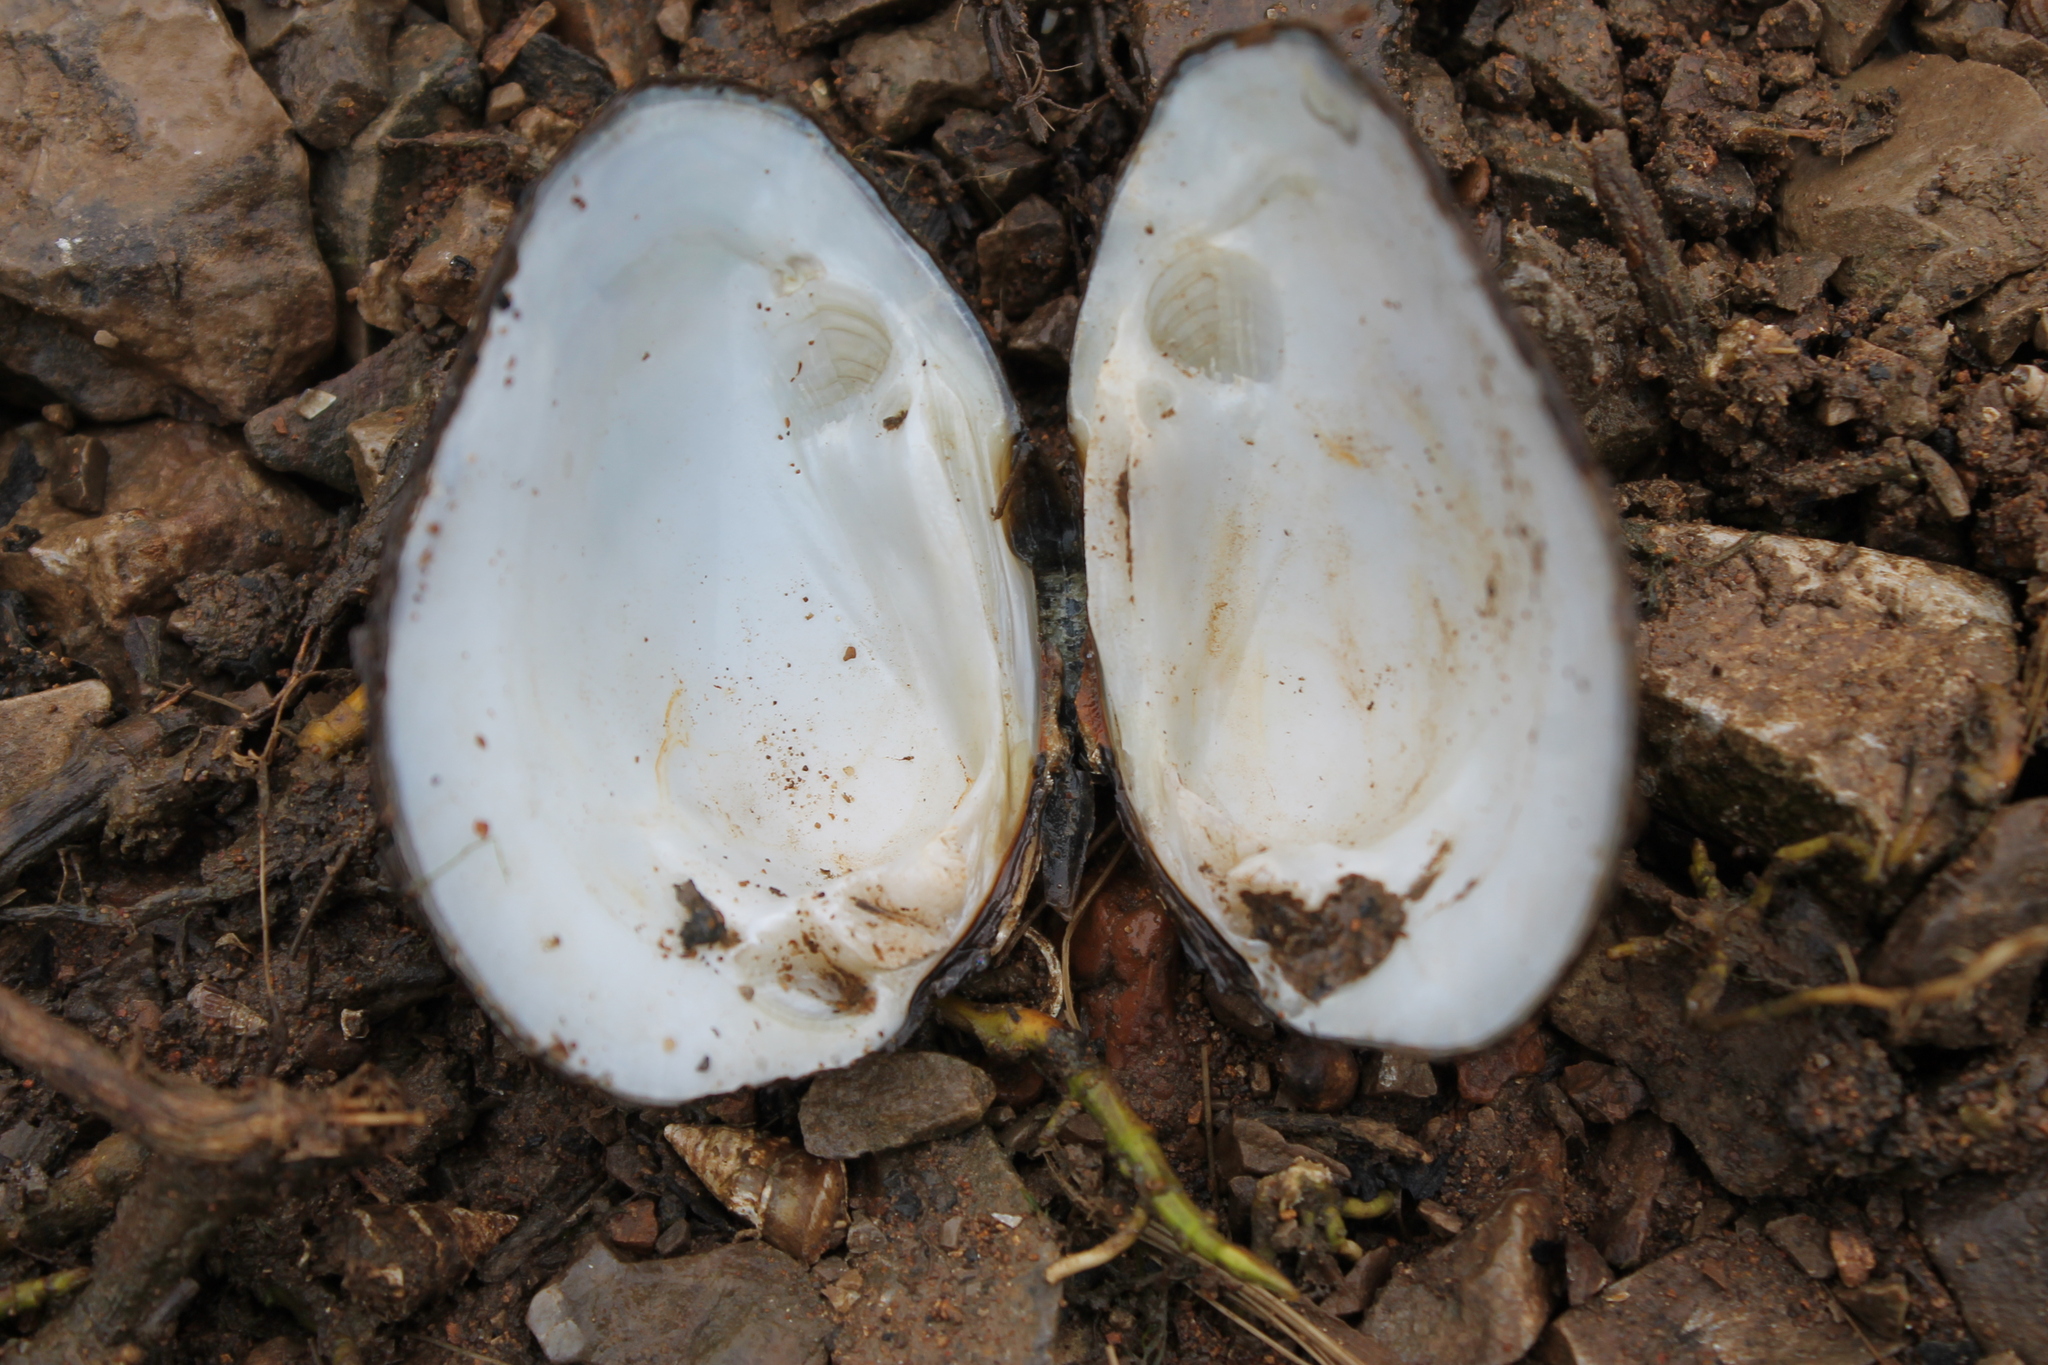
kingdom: Animalia
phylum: Mollusca
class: Bivalvia
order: Unionida
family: Unionidae
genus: Pleuronaia
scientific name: Pleuronaia dolabelloides
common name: Slabside pearlymussel
